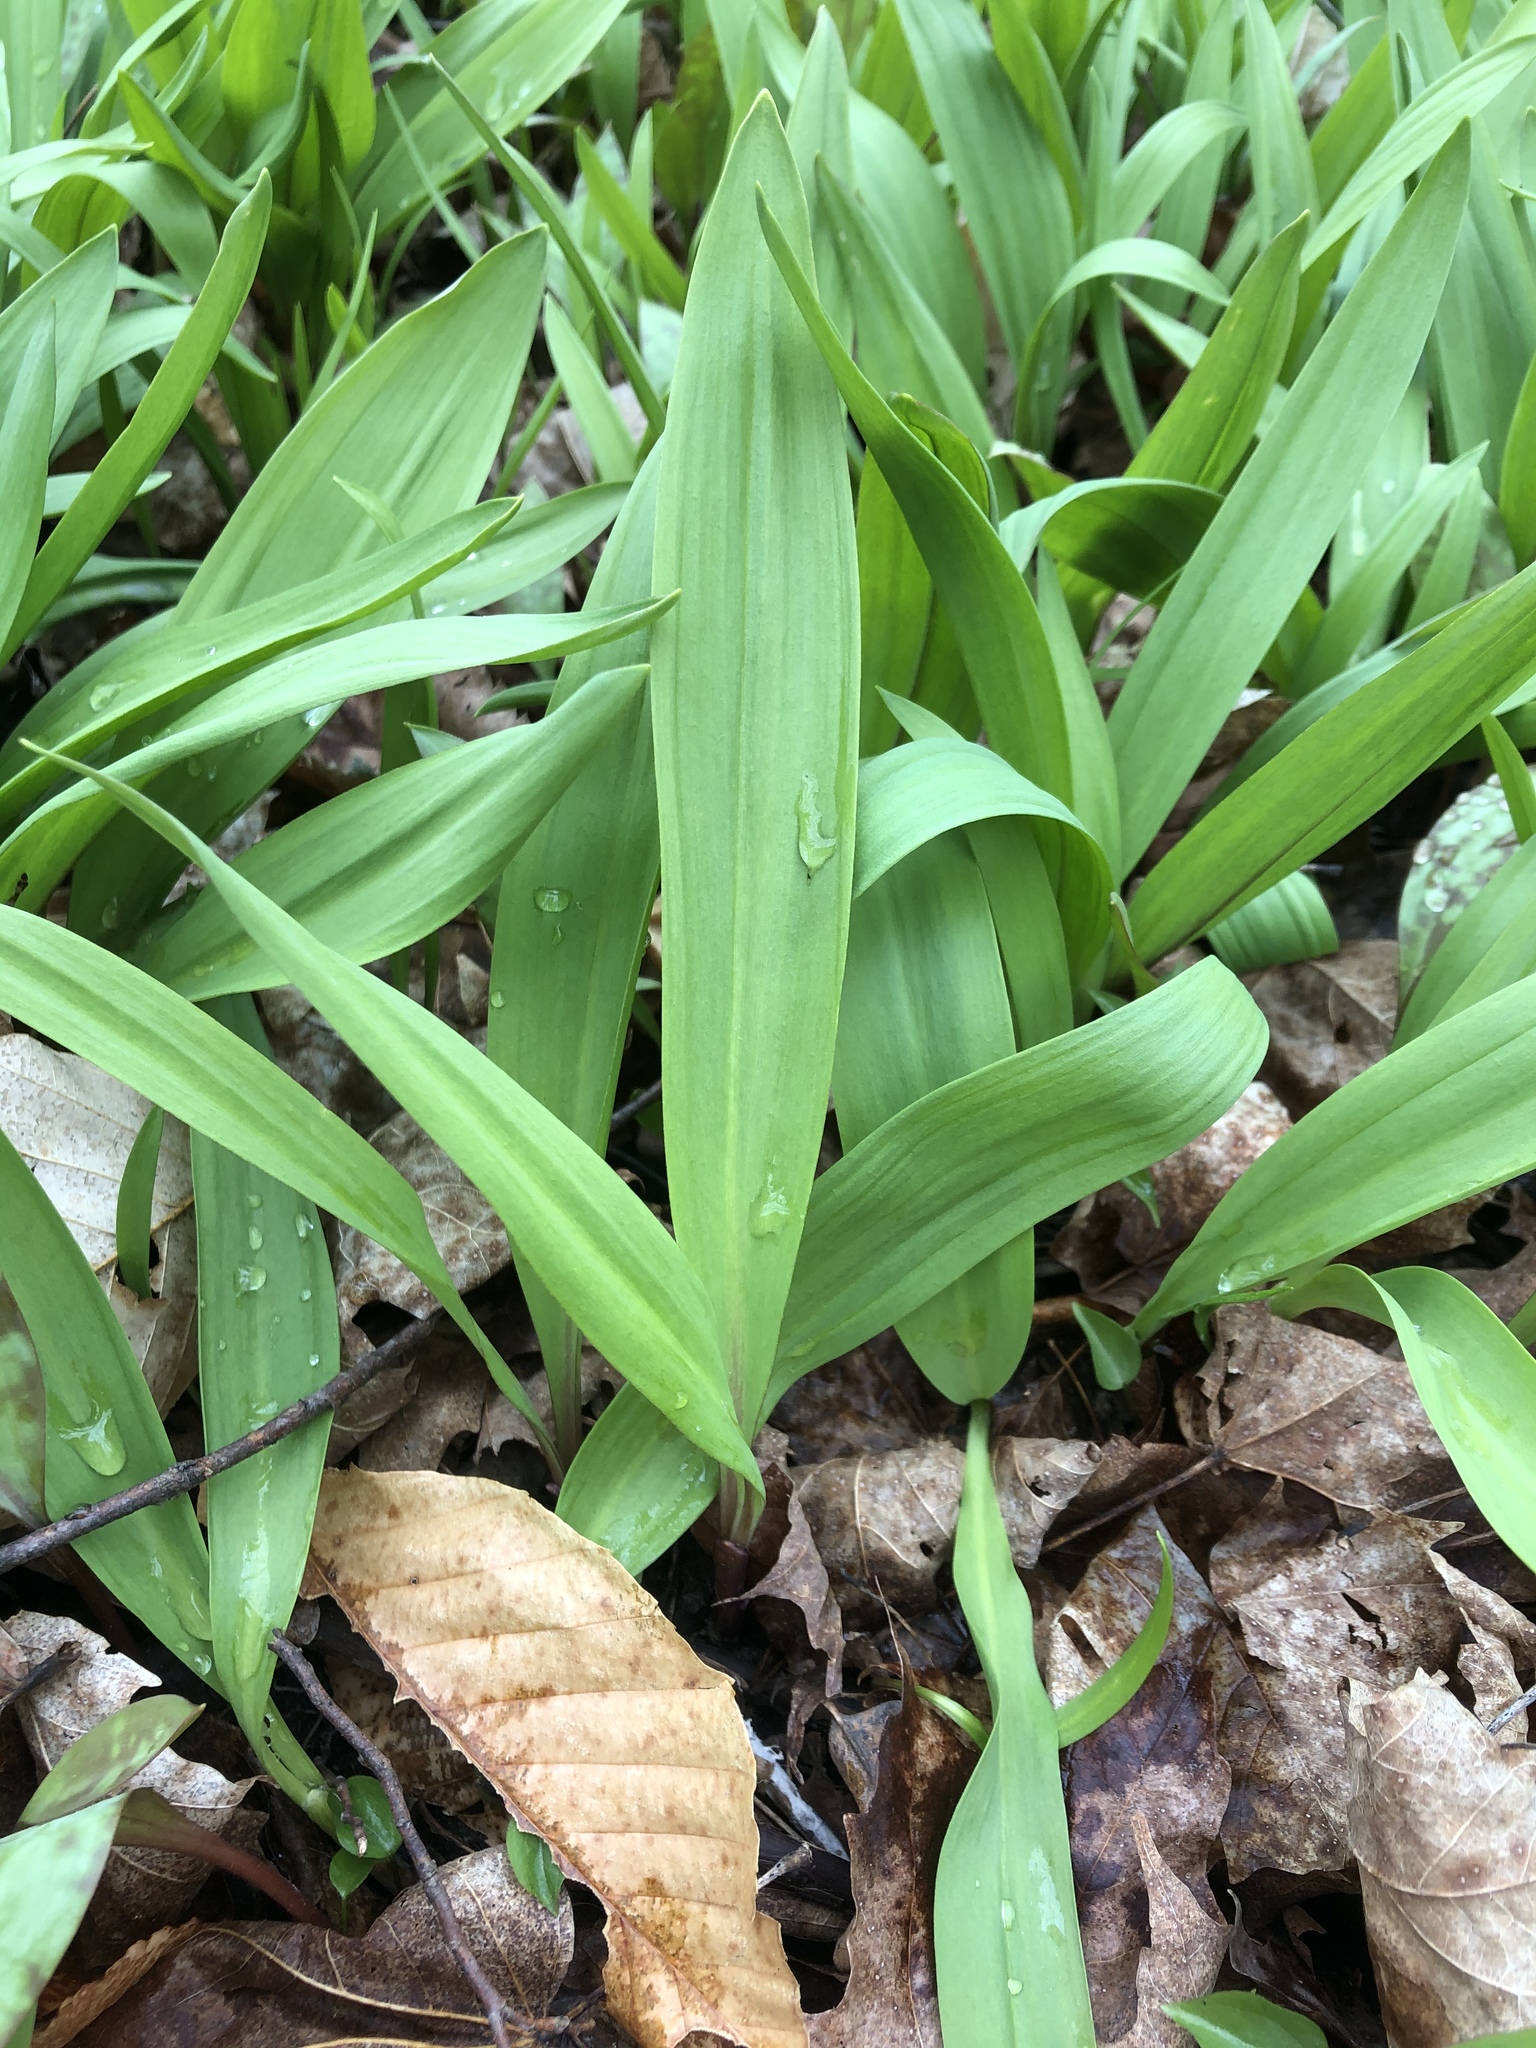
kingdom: Plantae
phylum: Tracheophyta
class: Liliopsida
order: Asparagales
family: Amaryllidaceae
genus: Allium
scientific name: Allium tricoccum
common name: Ramp
